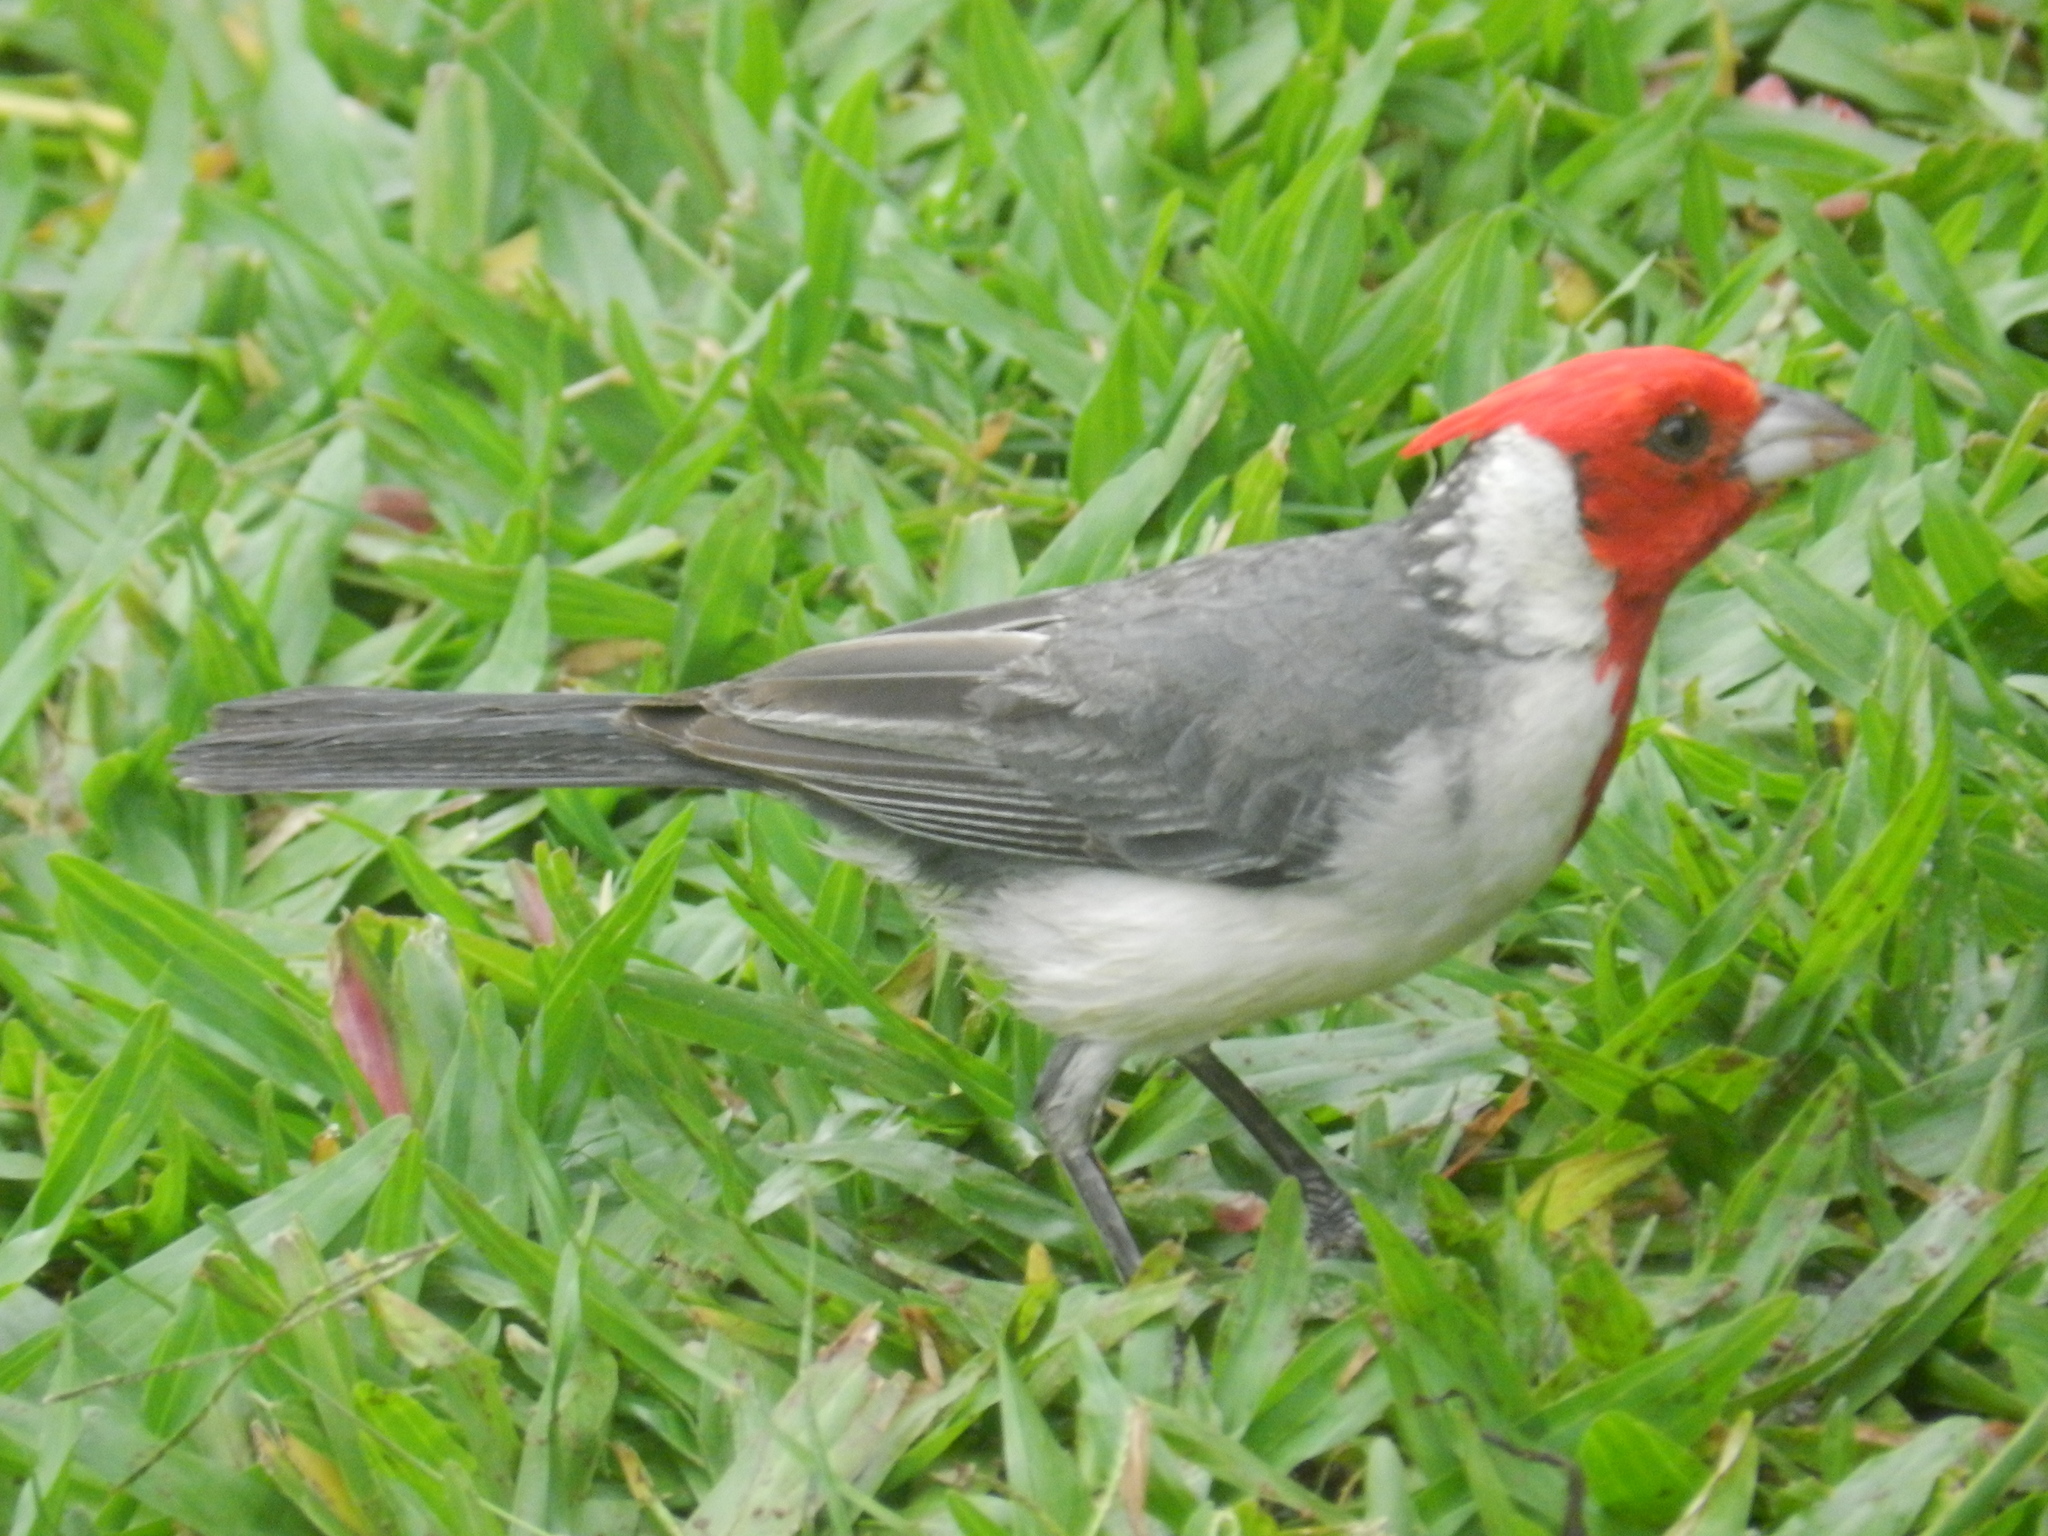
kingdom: Animalia
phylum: Chordata
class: Aves
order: Passeriformes
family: Thraupidae
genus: Paroaria
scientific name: Paroaria coronata
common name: Red-crested cardinal
